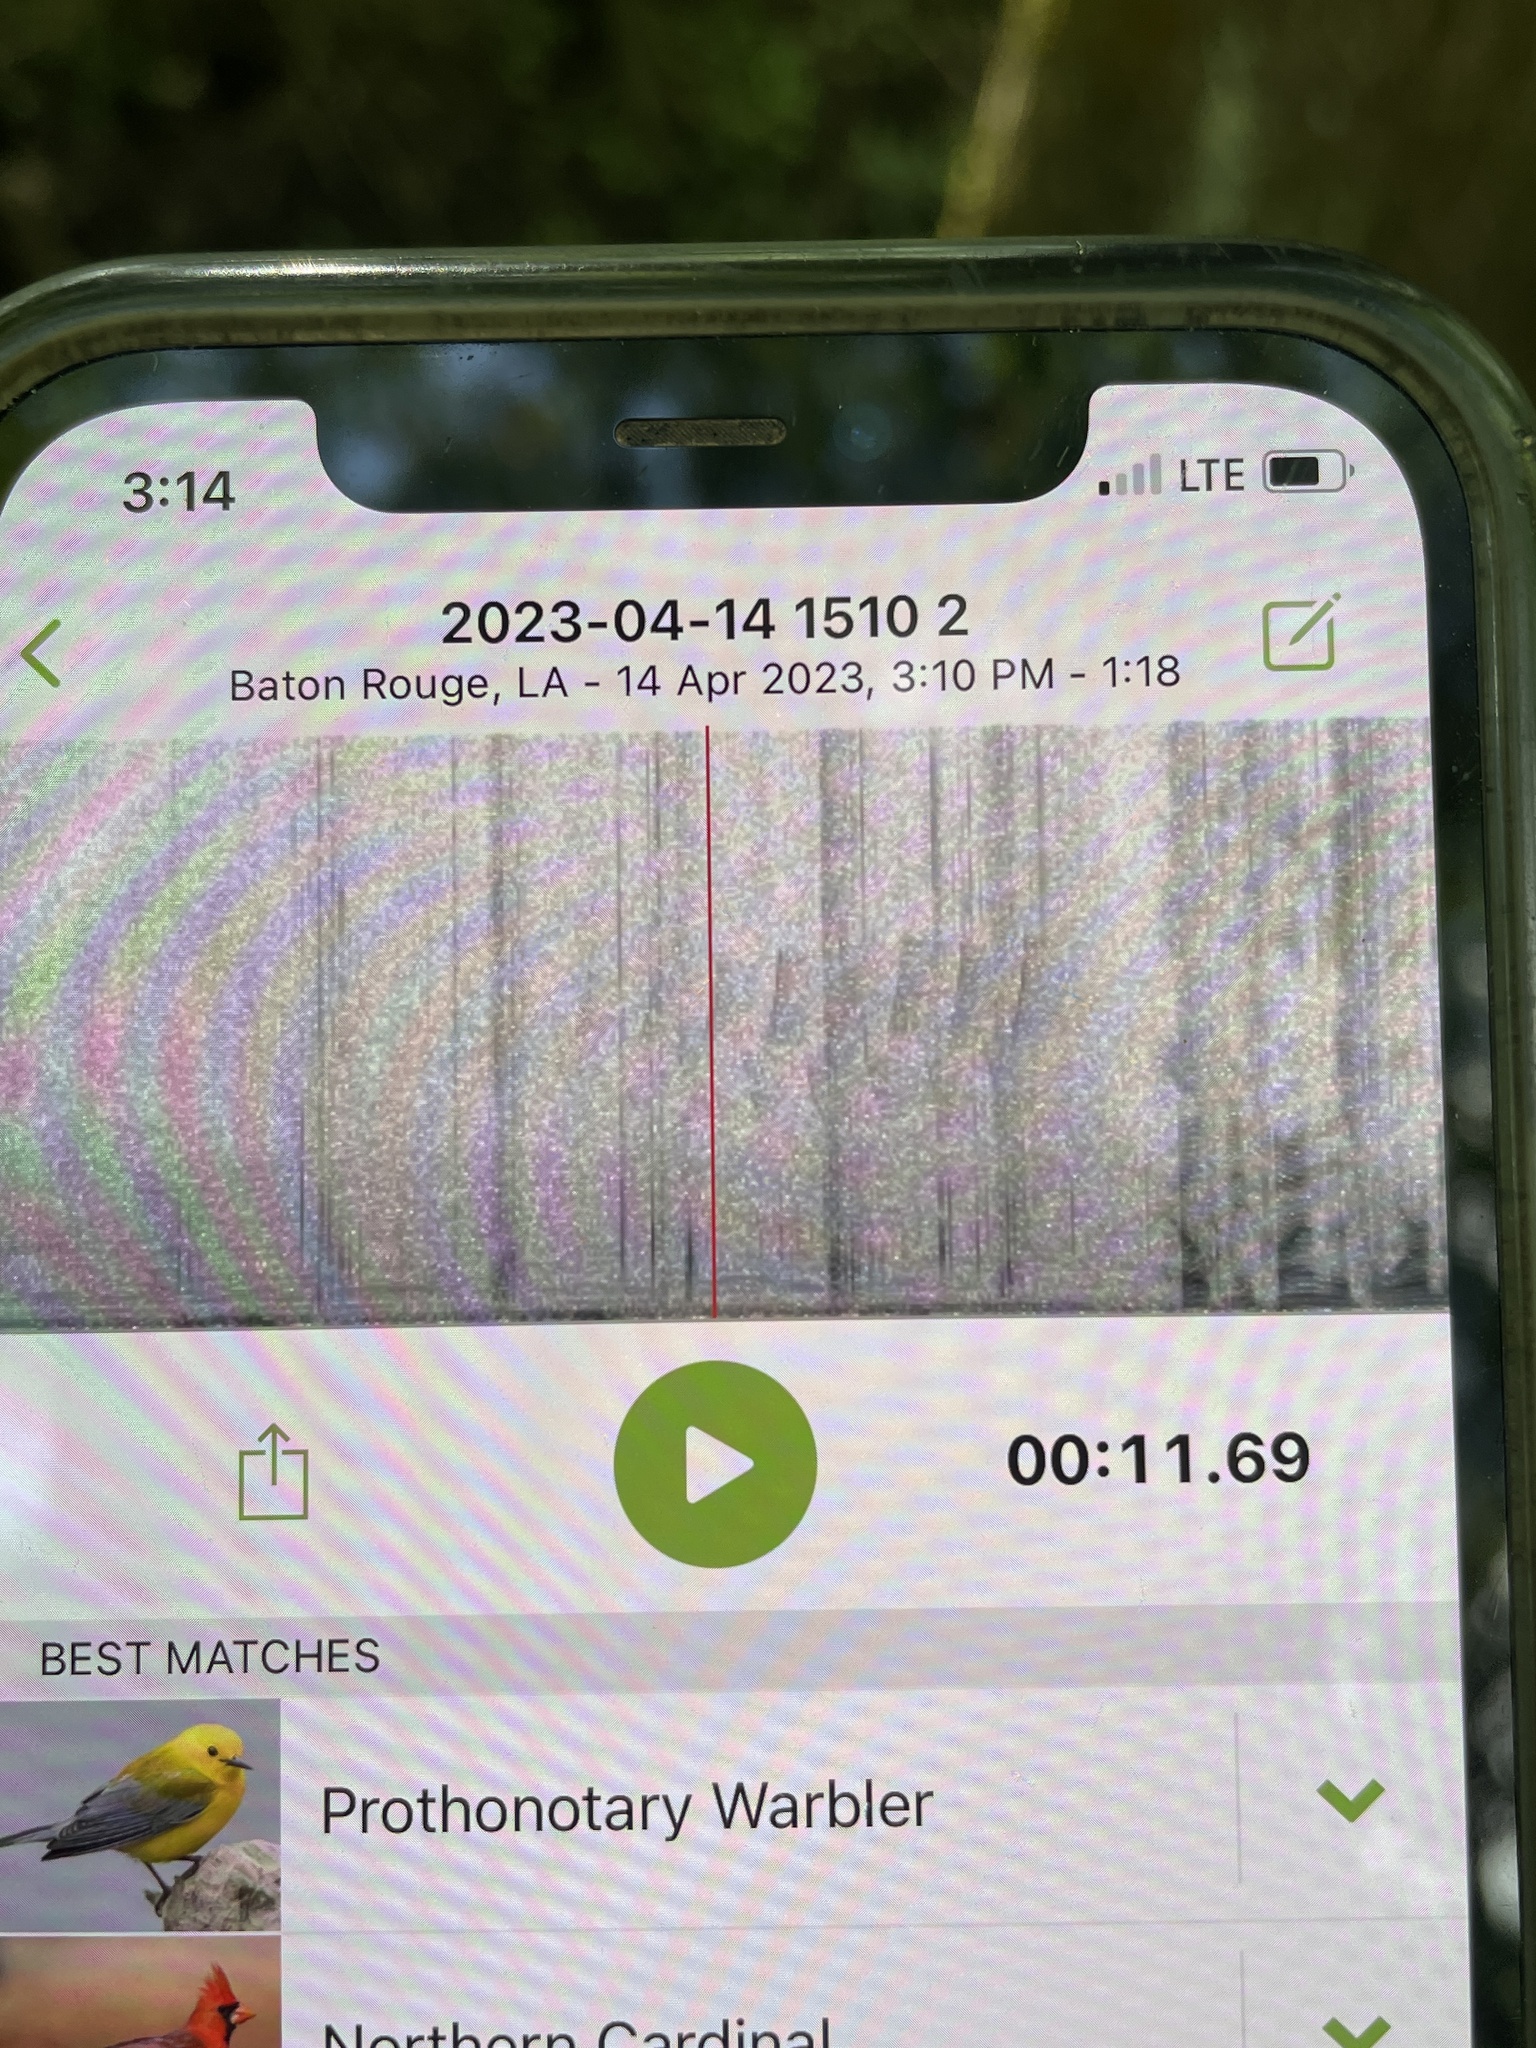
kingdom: Animalia
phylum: Chordata
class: Aves
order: Passeriformes
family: Parulidae
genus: Protonotaria
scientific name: Protonotaria citrea
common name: Prothonotary warbler
